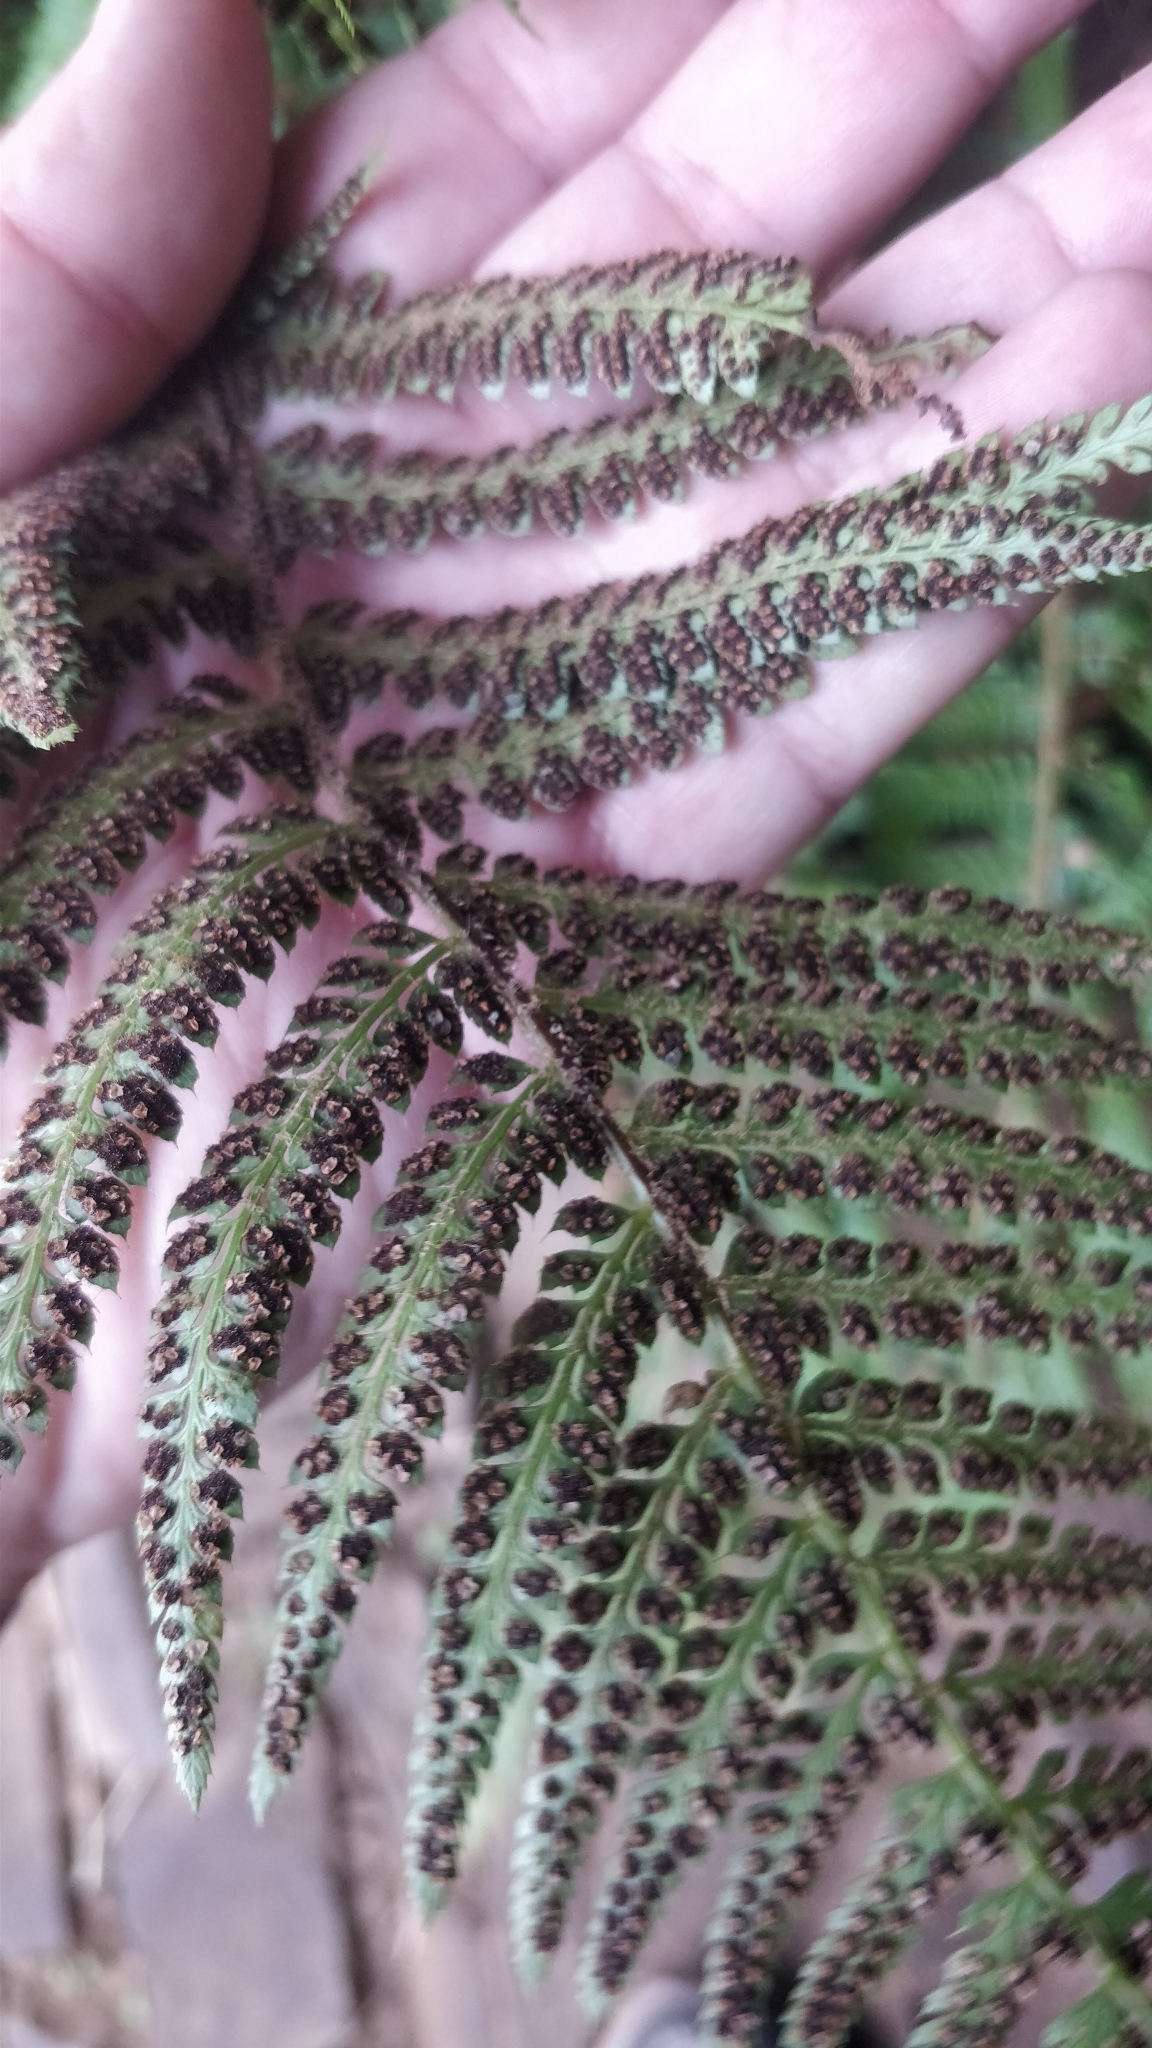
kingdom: Plantae
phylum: Tracheophyta
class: Polypodiopsida
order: Polypodiales
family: Dryopteridaceae
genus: Polystichum
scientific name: Polystichum setiferum
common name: Soft shield-fern
